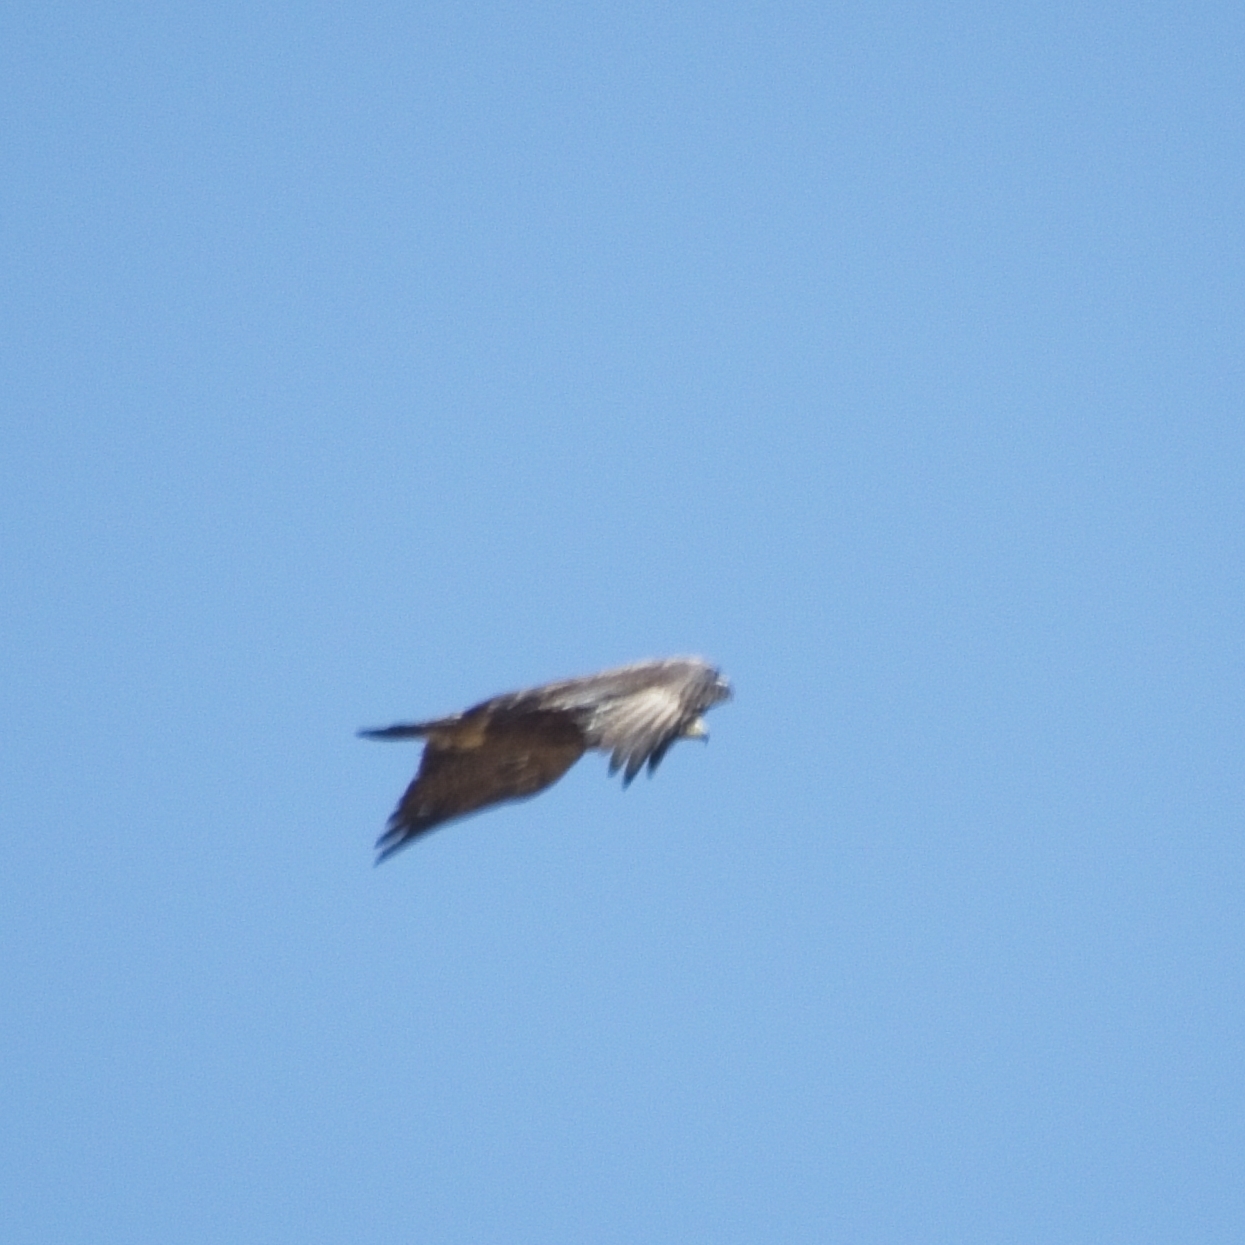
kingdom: Animalia
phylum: Chordata
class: Aves
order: Accipitriformes
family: Accipitridae
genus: Aquila
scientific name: Aquila chrysaetos
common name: Golden eagle
